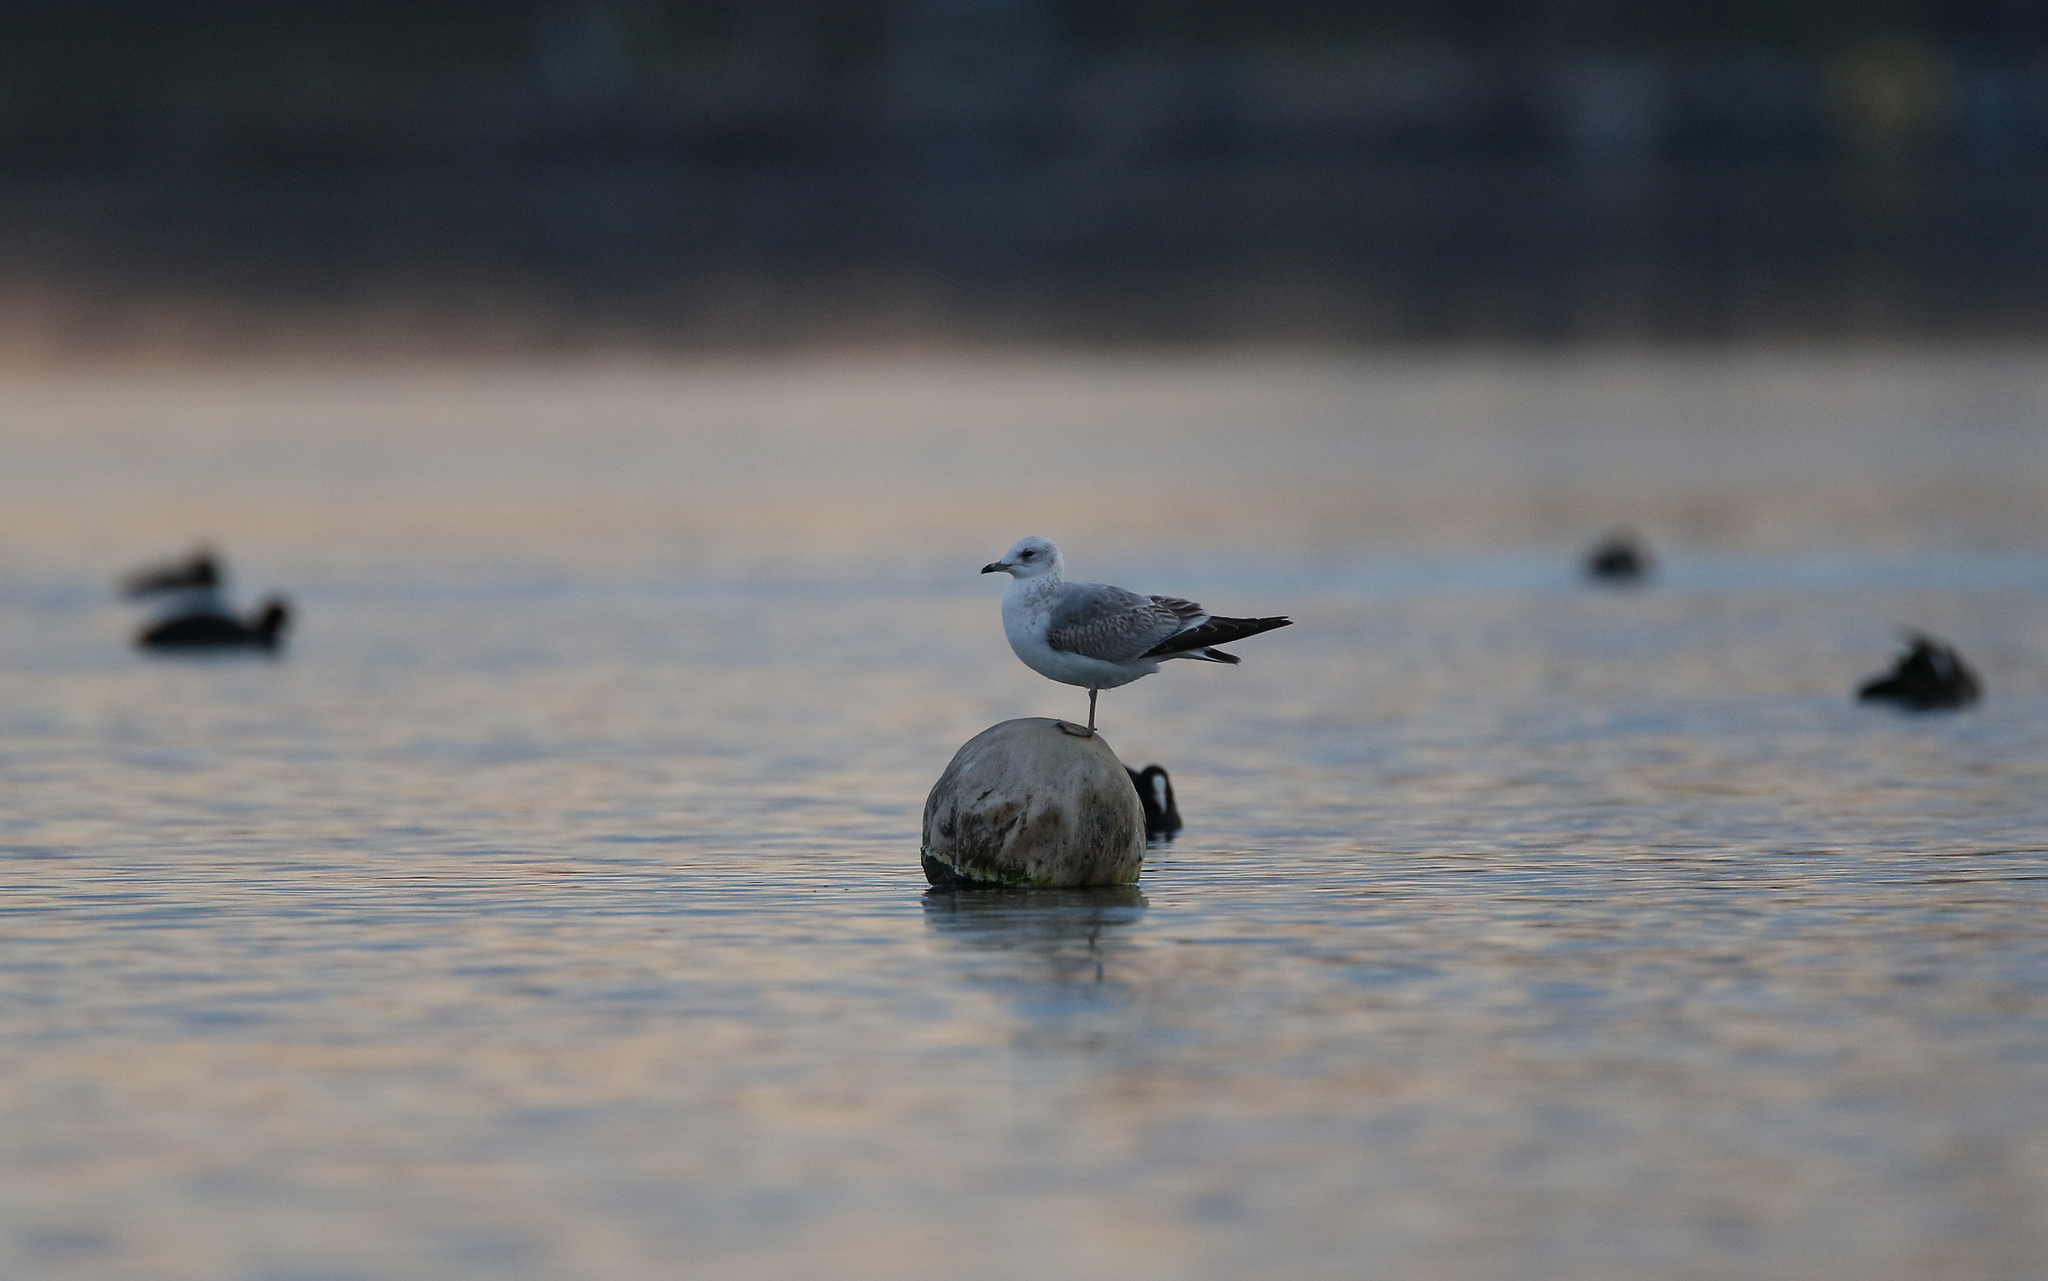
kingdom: Animalia
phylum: Chordata
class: Aves
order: Charadriiformes
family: Laridae
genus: Larus
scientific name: Larus canus
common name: Mew gull
